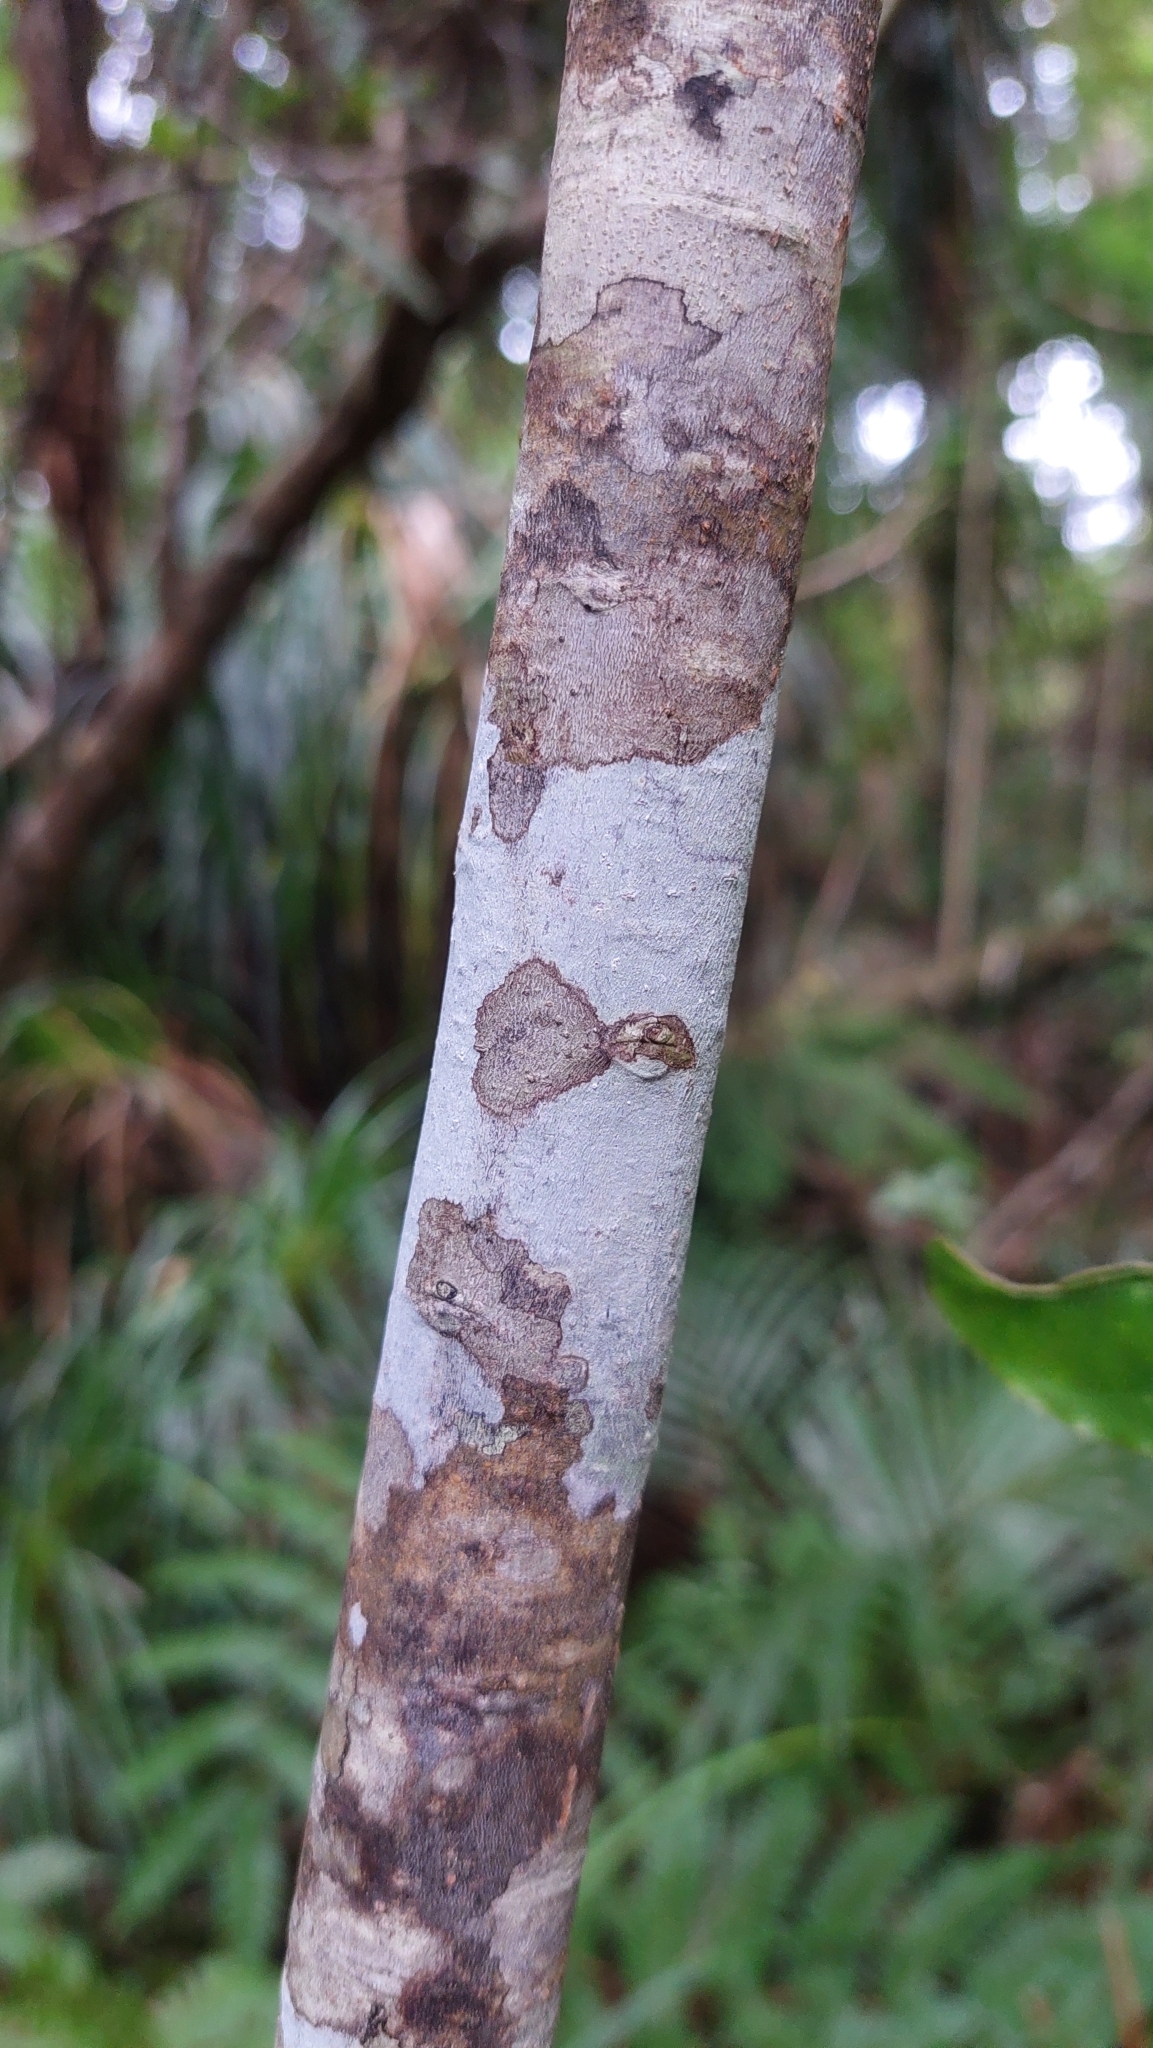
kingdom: Plantae
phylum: Tracheophyta
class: Magnoliopsida
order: Ericales
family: Primulaceae
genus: Myrsine
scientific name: Myrsine salicina
